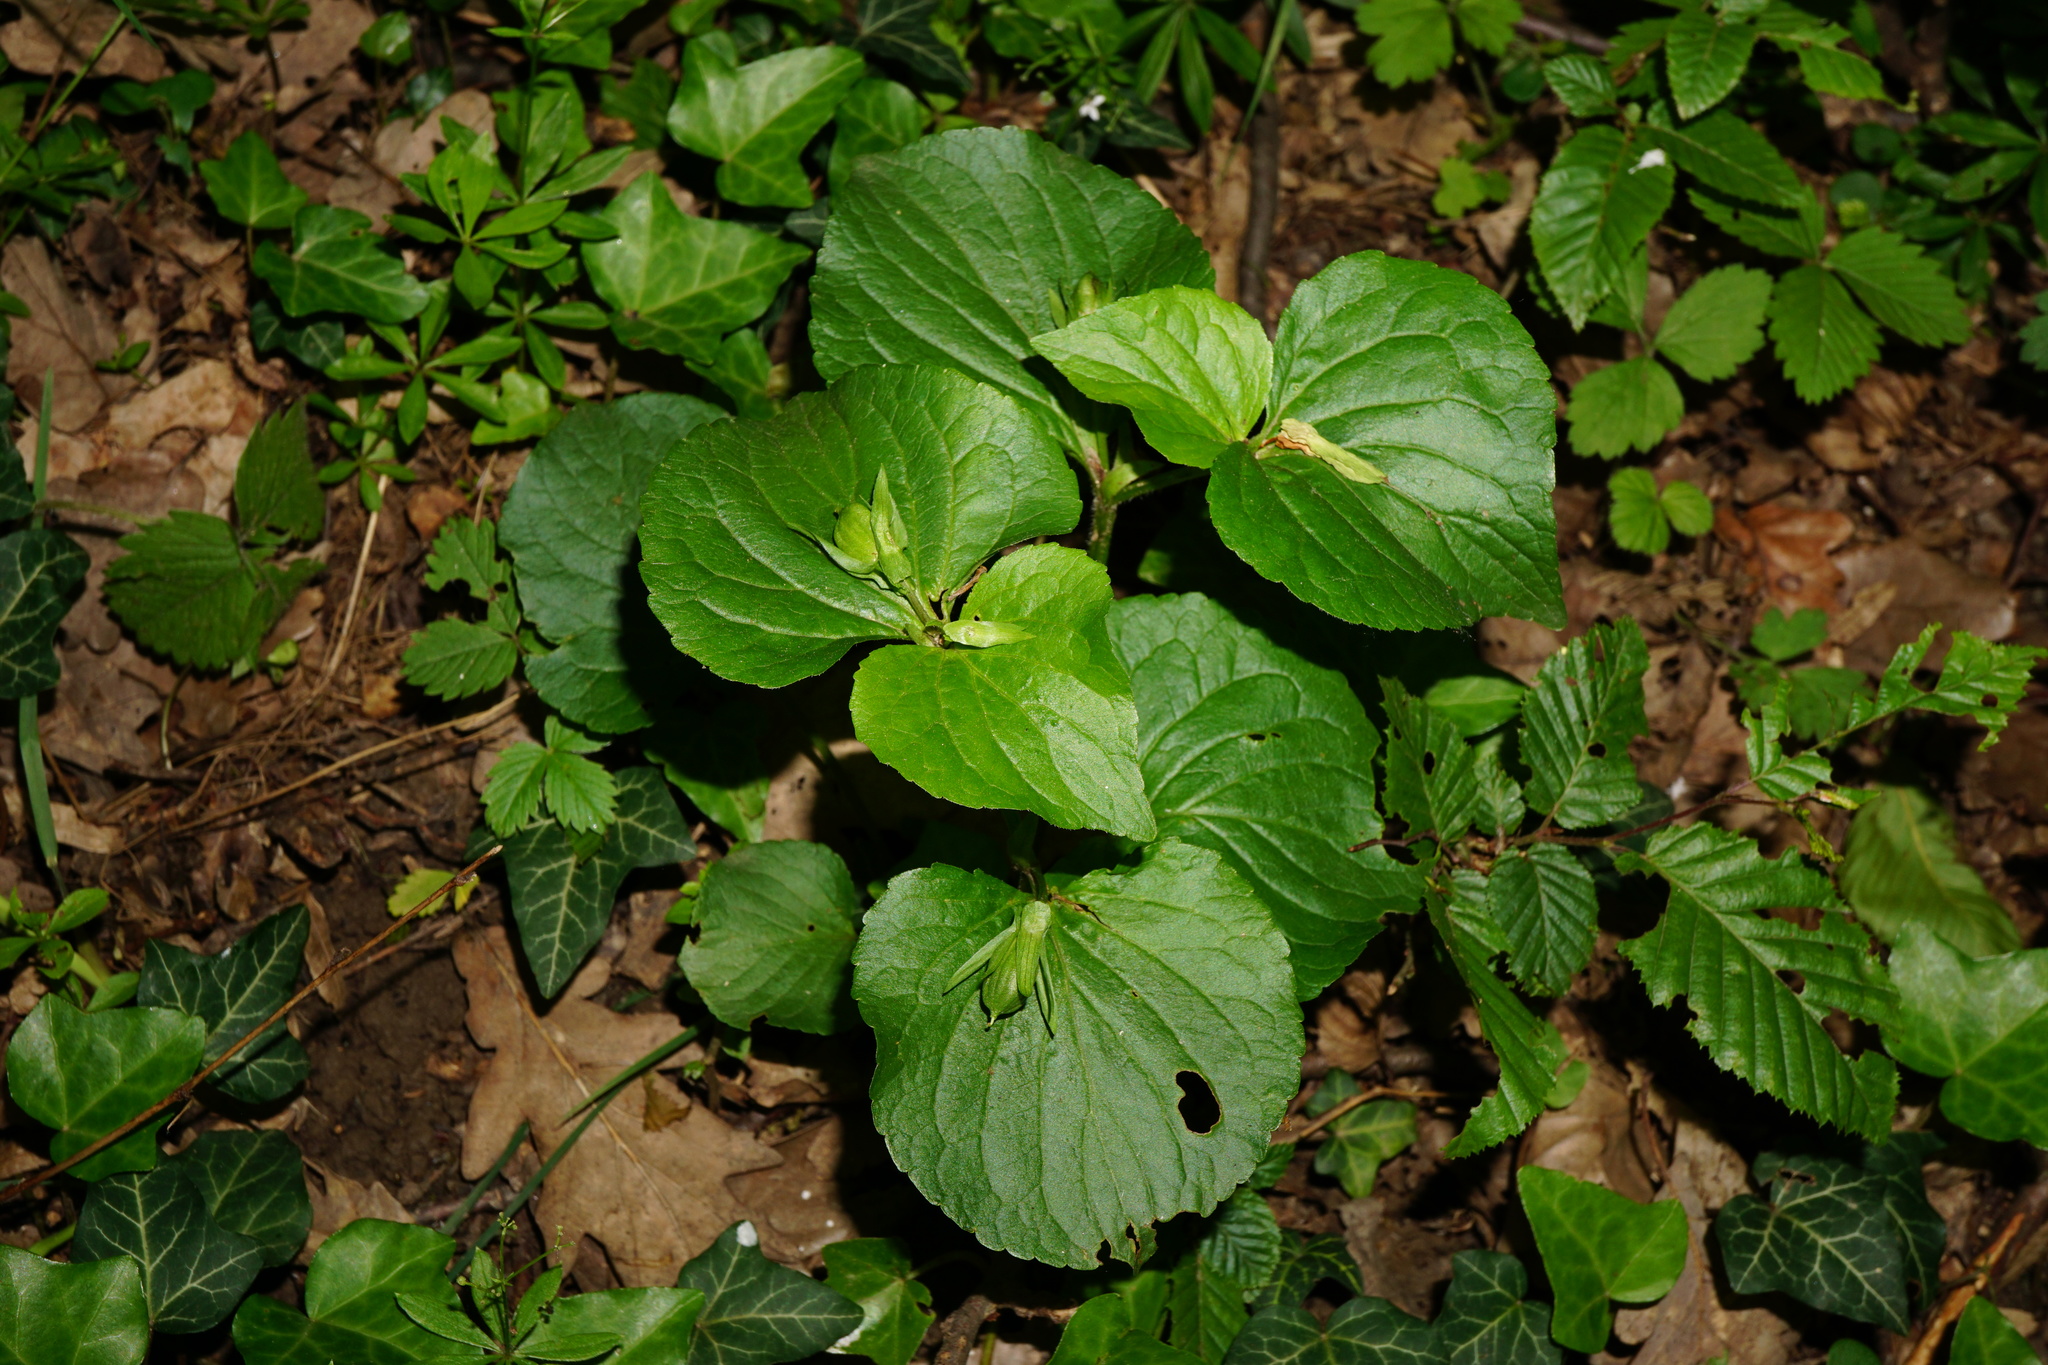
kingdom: Plantae
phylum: Tracheophyta
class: Magnoliopsida
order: Malpighiales
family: Violaceae
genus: Viola
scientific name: Viola mirabilis
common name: Wonder violet
